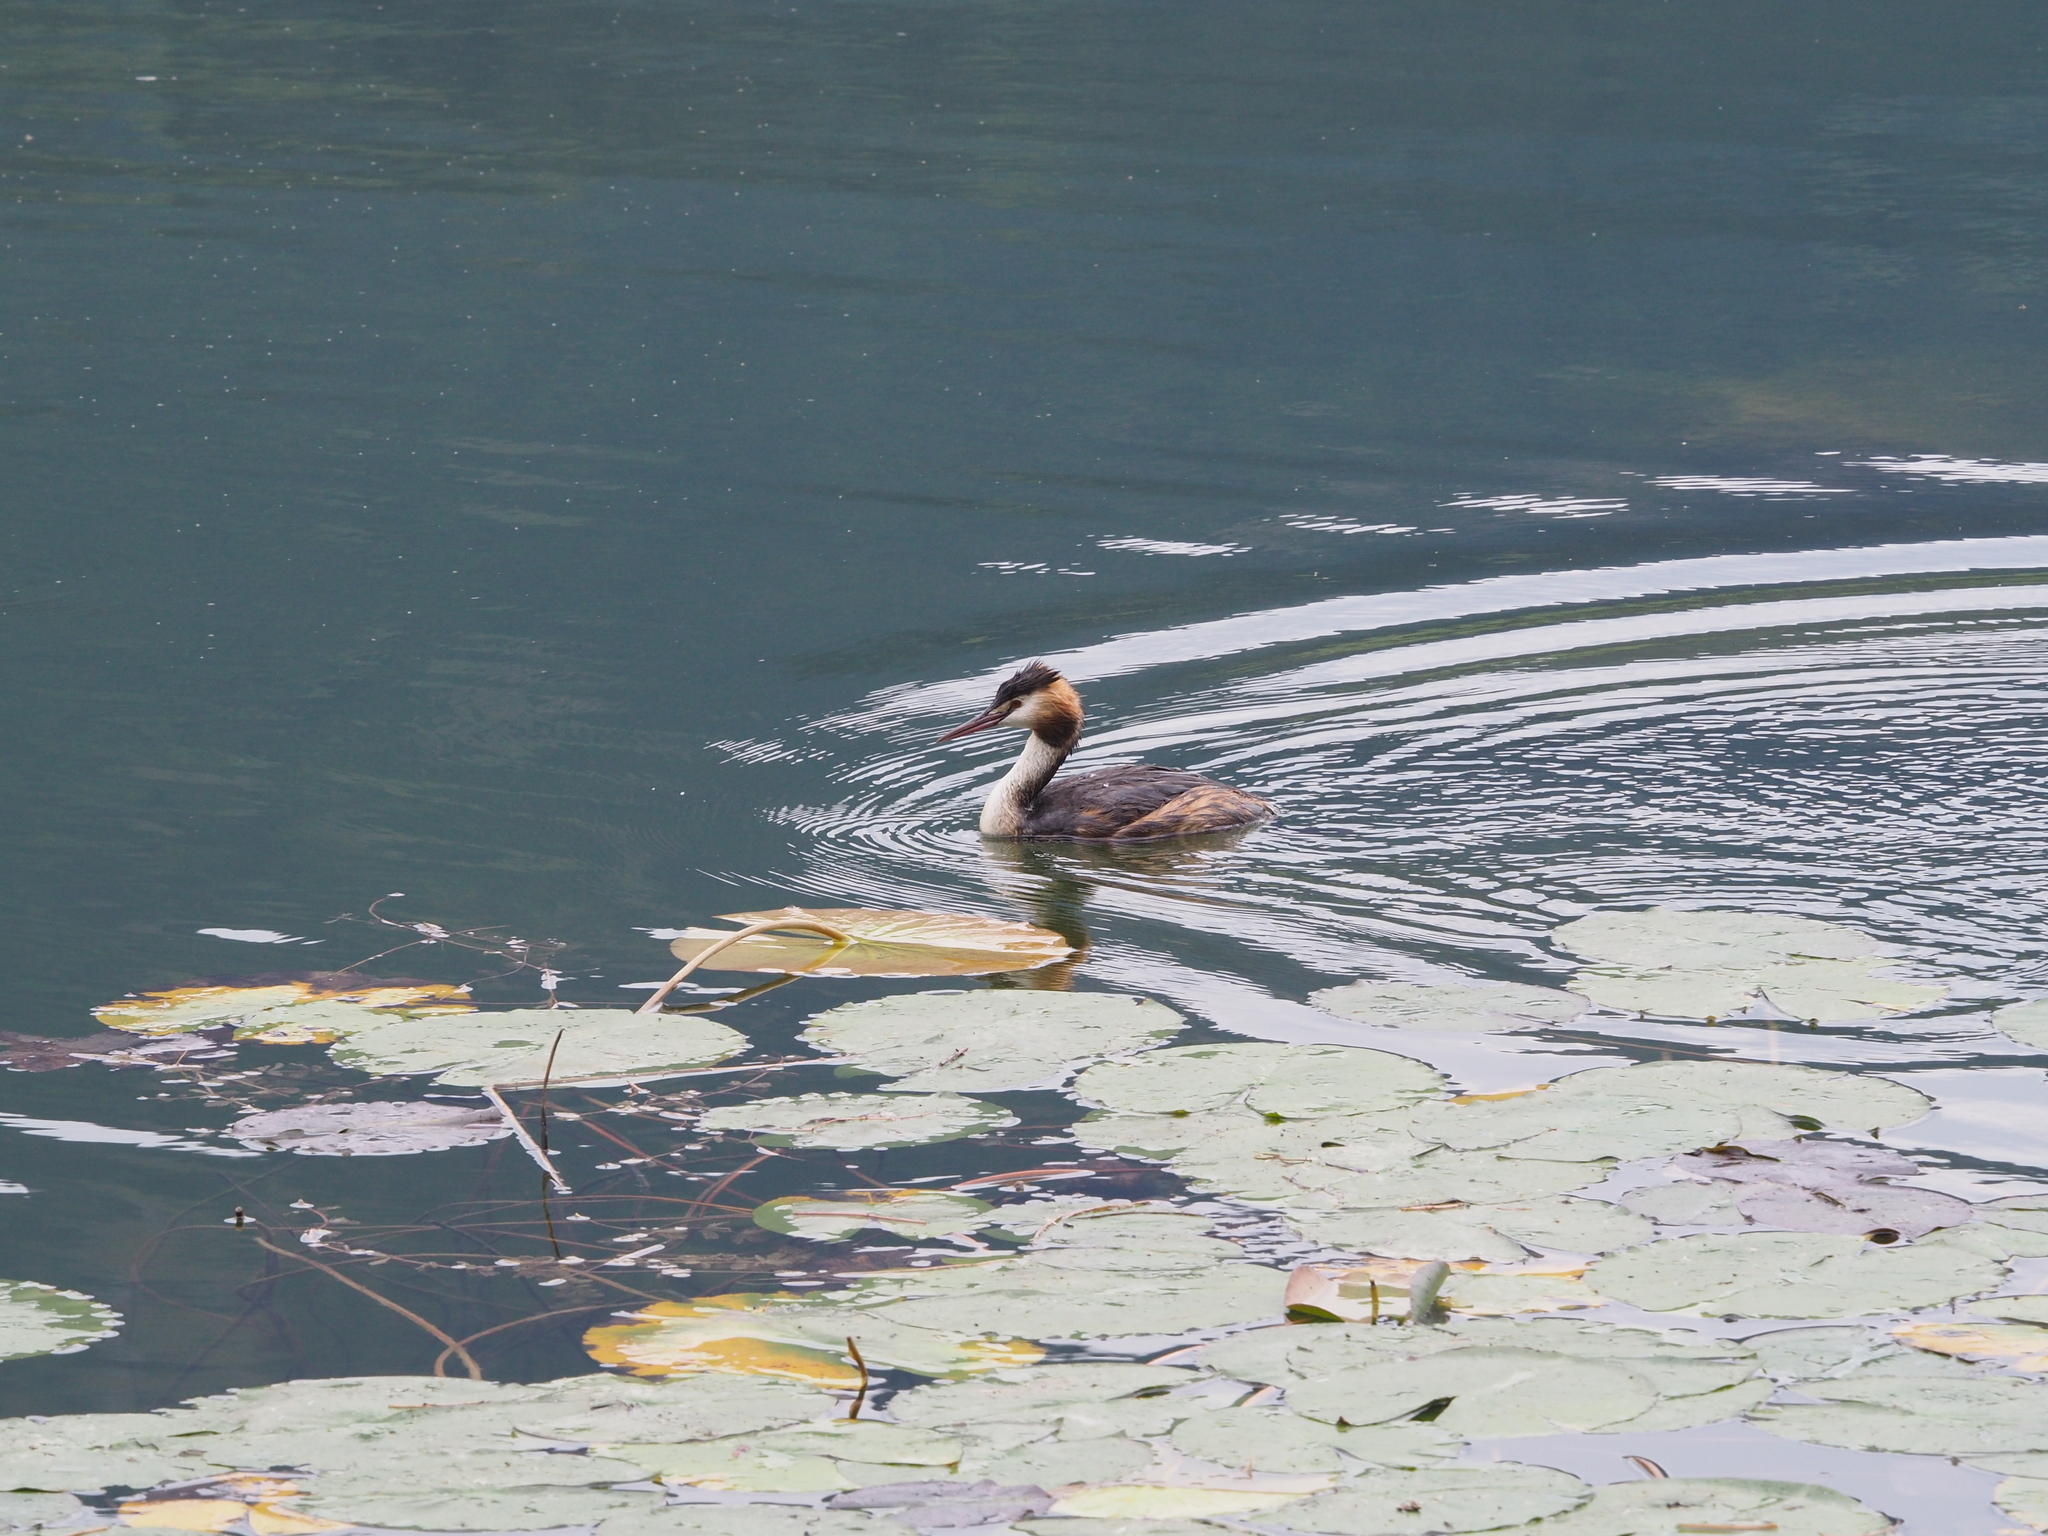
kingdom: Animalia
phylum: Chordata
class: Aves
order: Podicipediformes
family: Podicipedidae
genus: Podiceps
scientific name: Podiceps cristatus
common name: Great crested grebe
